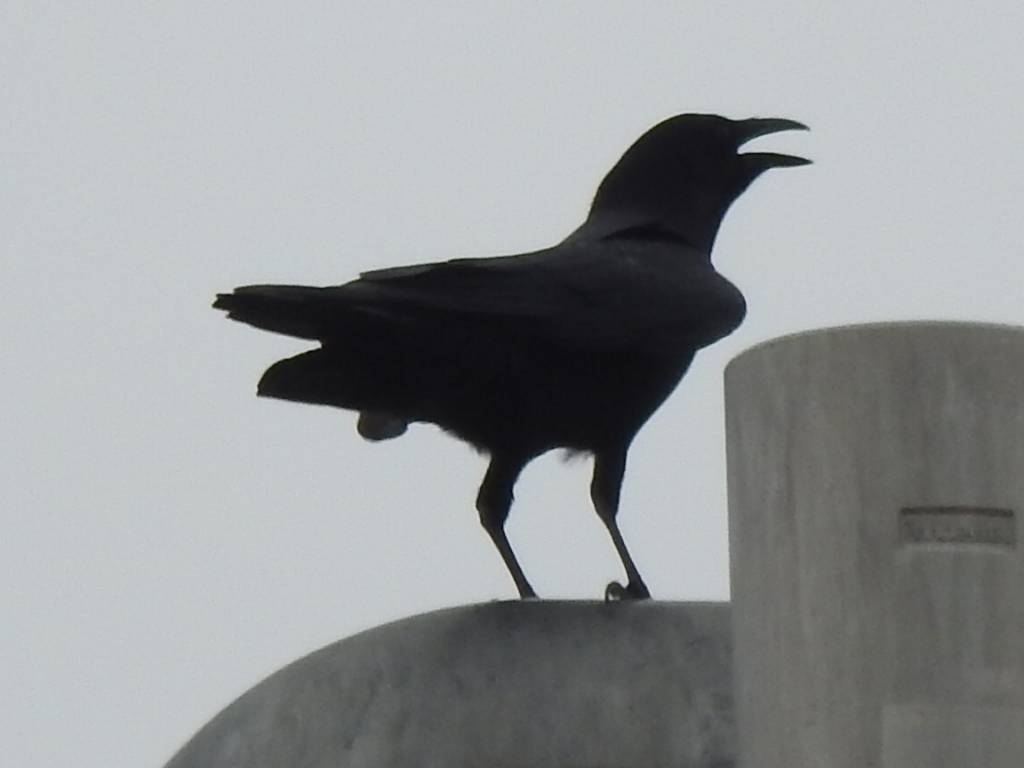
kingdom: Animalia
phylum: Chordata
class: Aves
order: Passeriformes
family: Corvidae
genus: Corvus
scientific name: Corvus brachyrhynchos
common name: American crow
